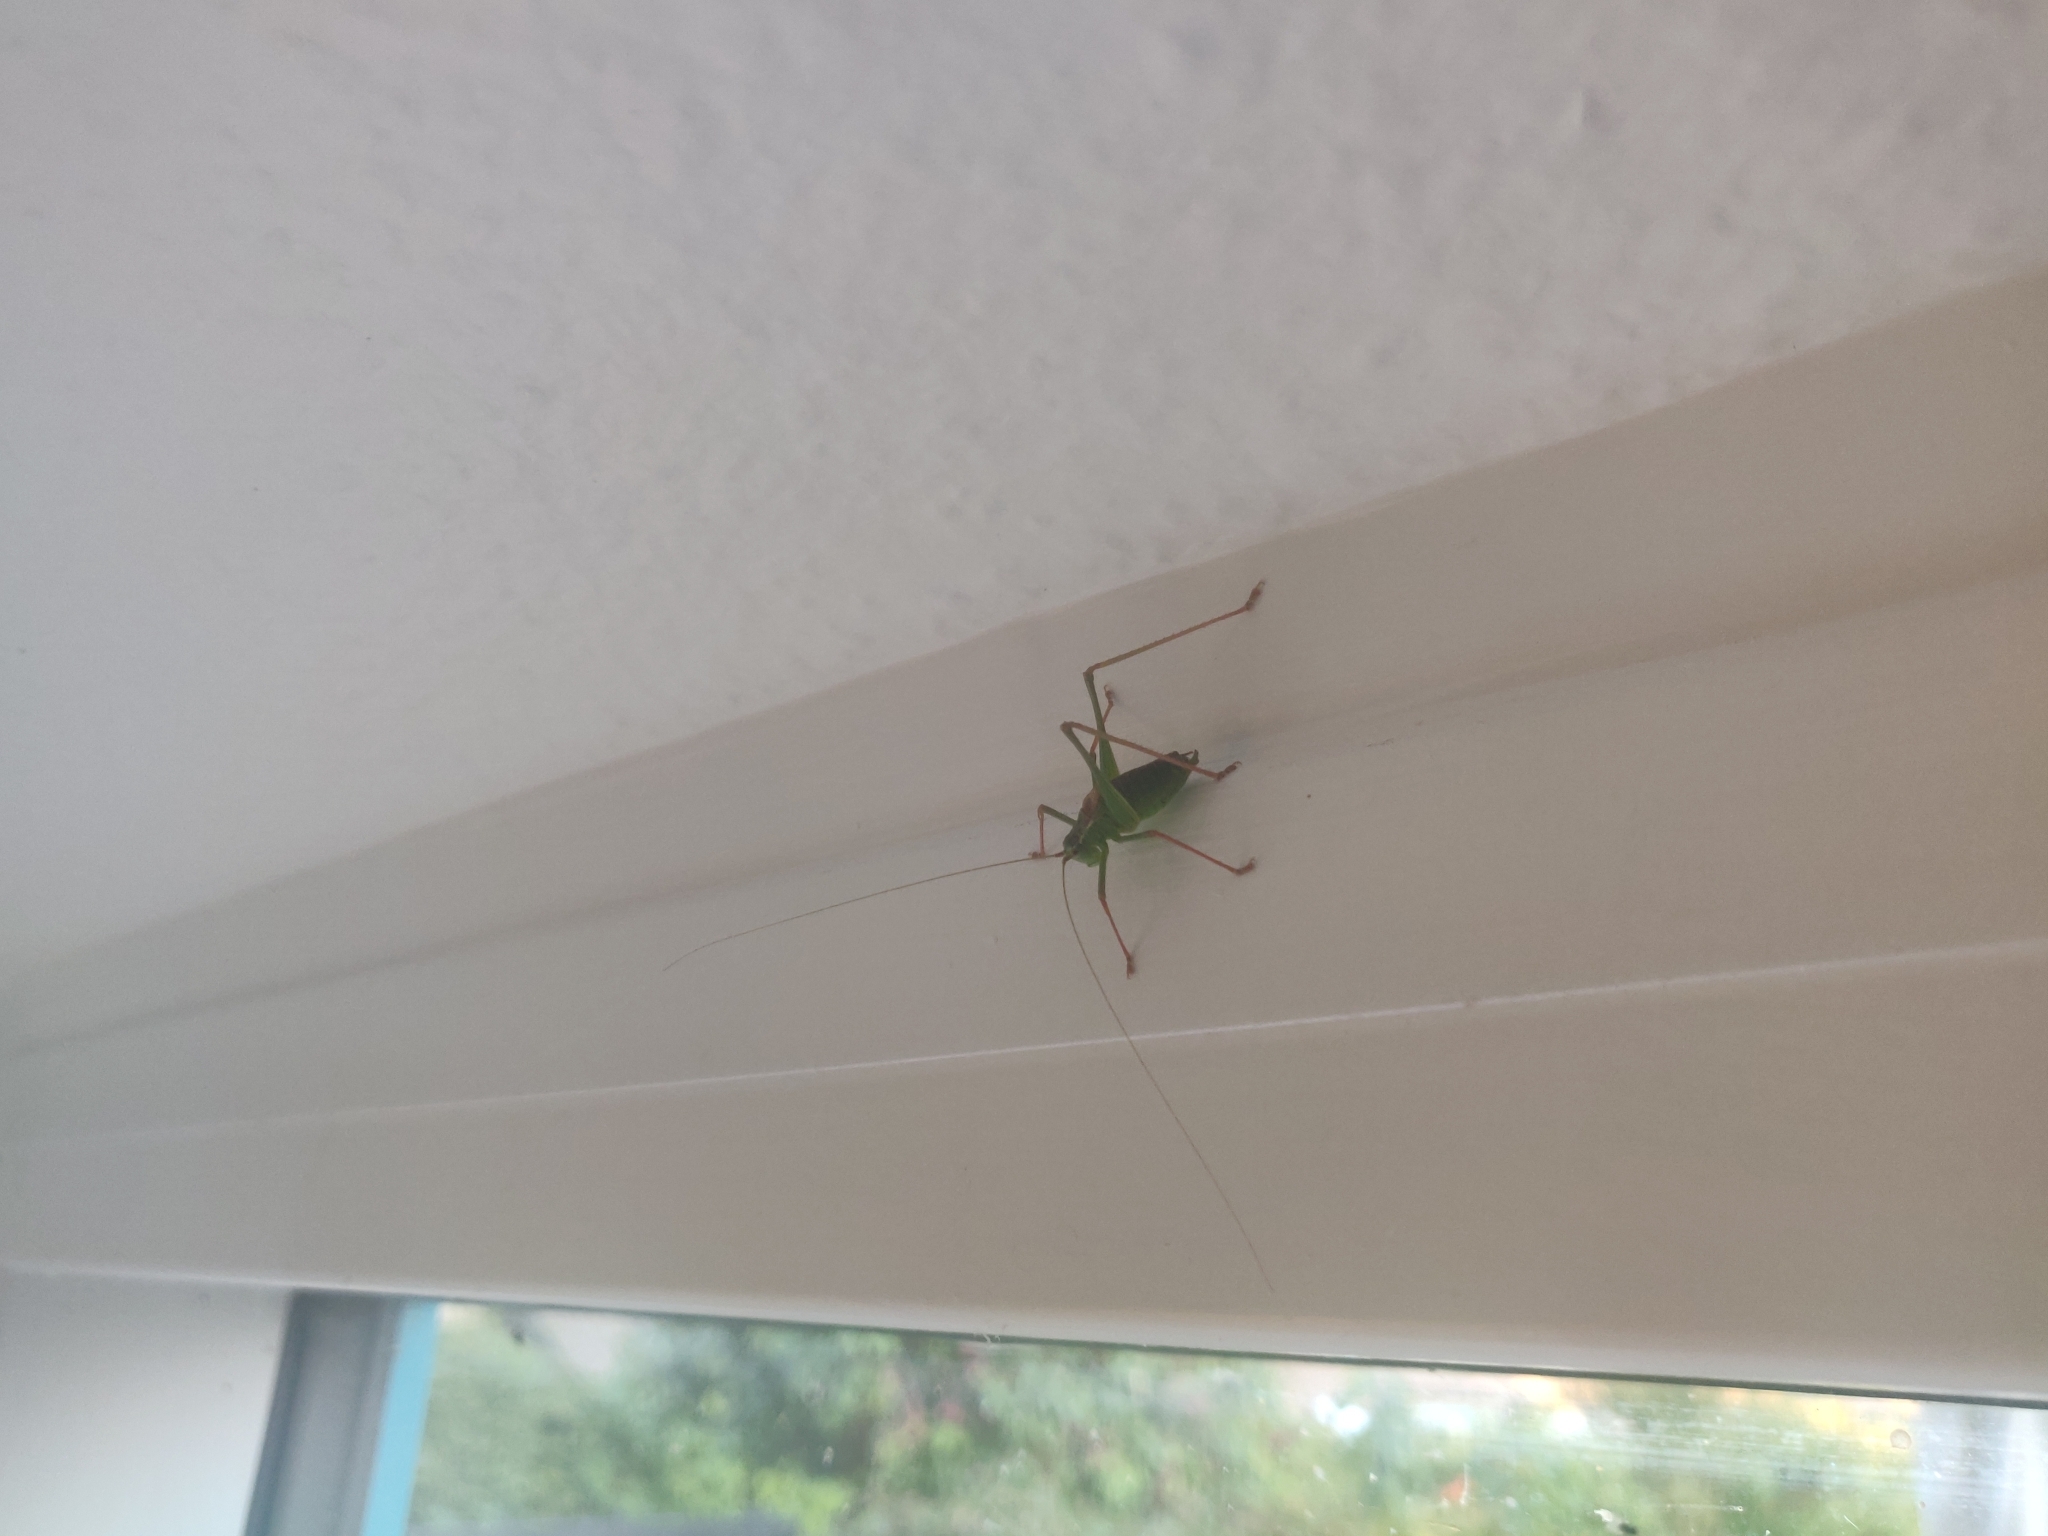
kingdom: Animalia
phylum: Arthropoda
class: Insecta
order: Orthoptera
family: Tettigoniidae
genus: Leptophyes
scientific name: Leptophyes punctatissima
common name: Speckled bush-cricket
